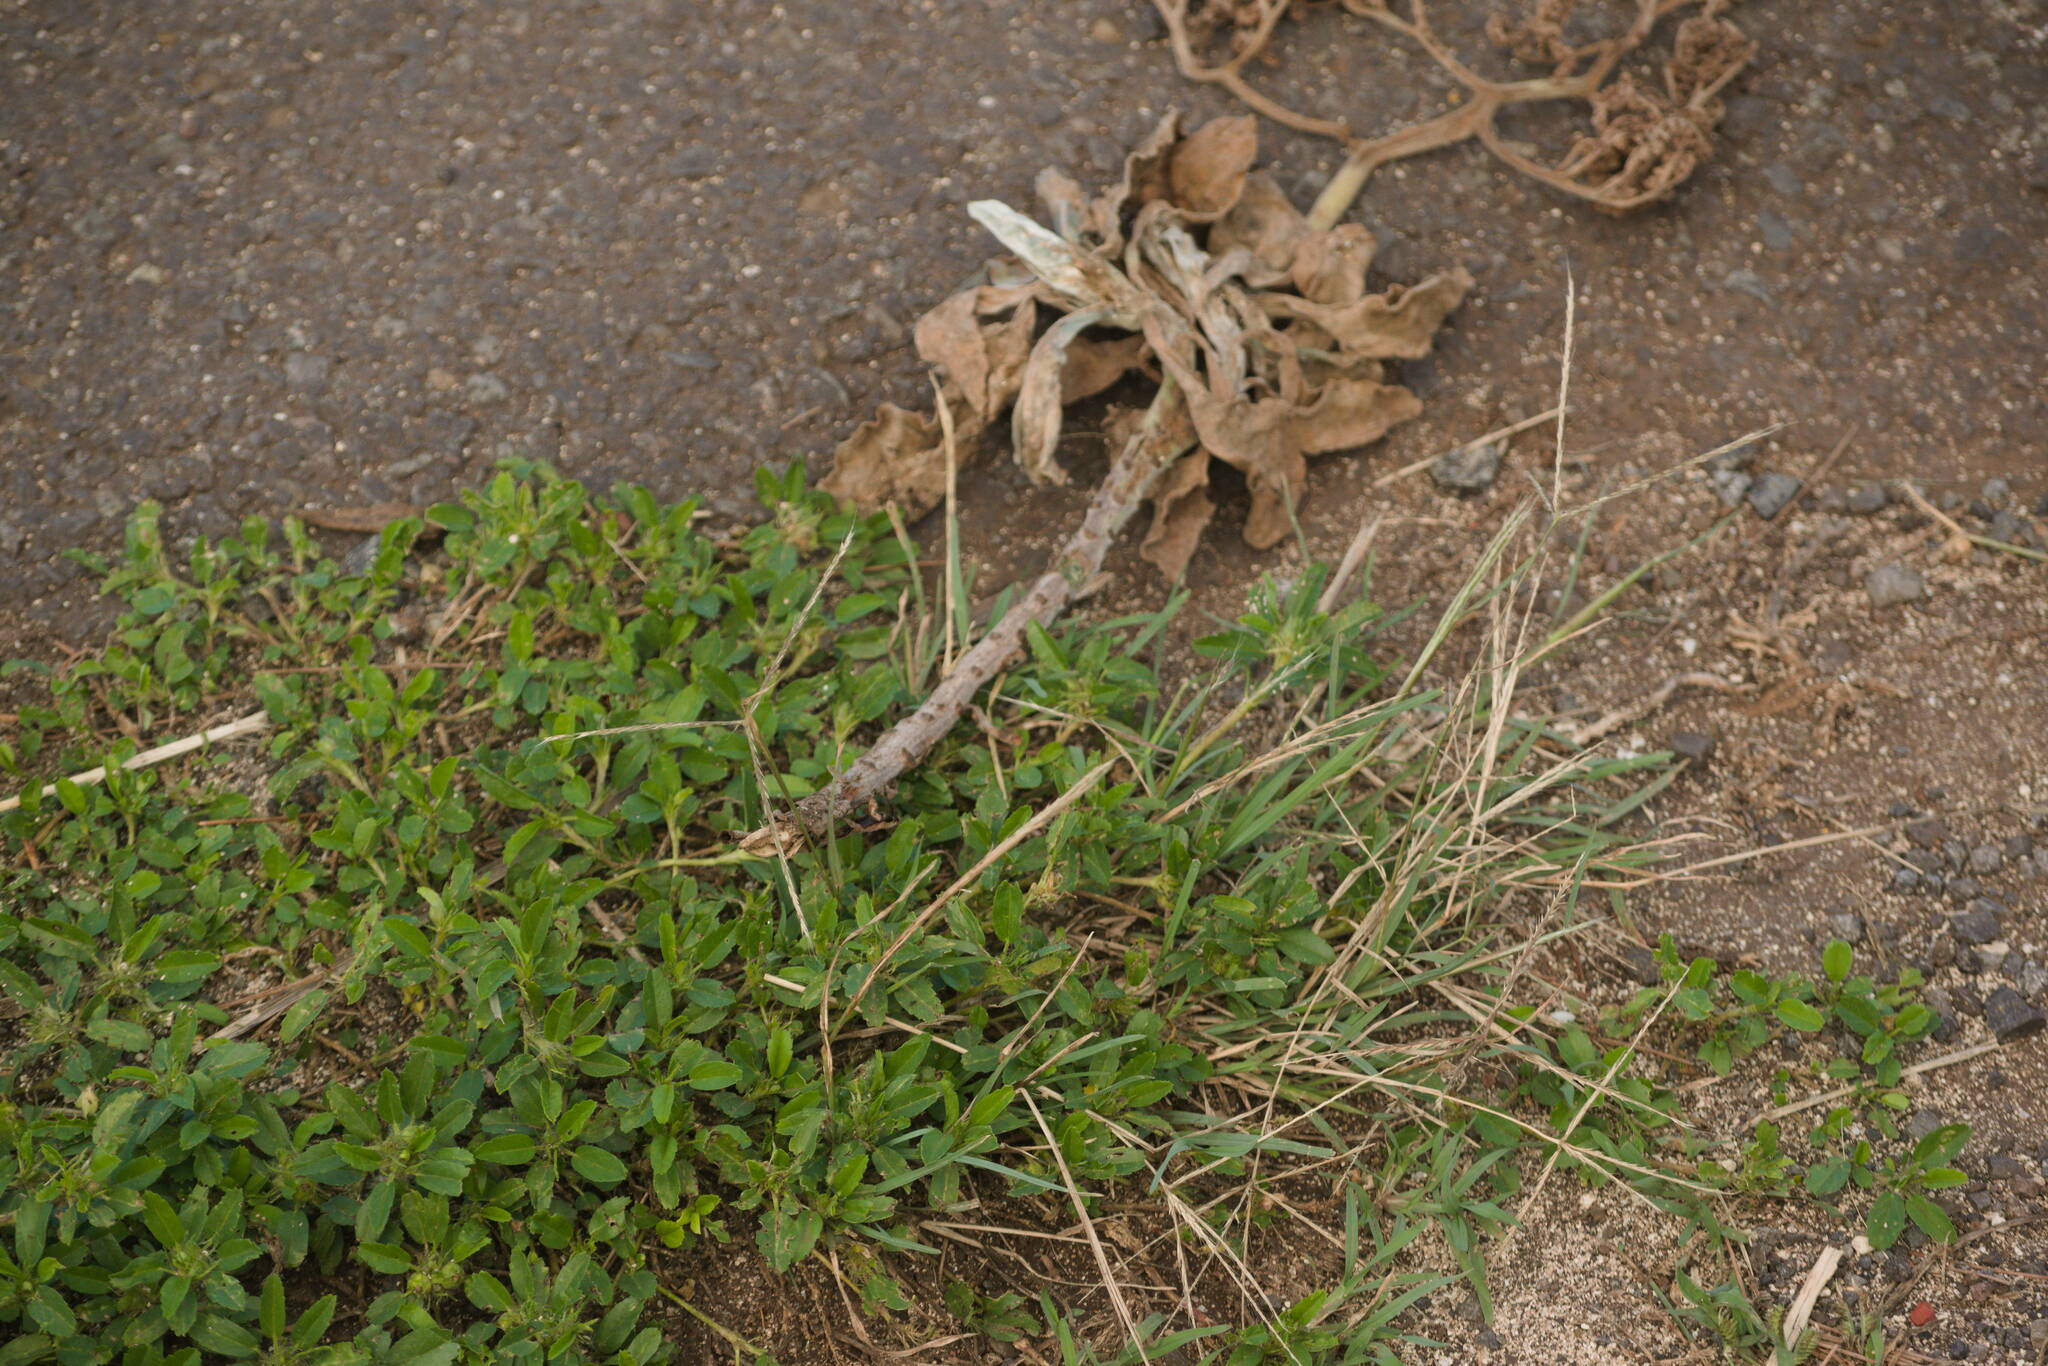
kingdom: Plantae
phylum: Tracheophyta
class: Liliopsida
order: Poales
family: Poaceae
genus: Chloris
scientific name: Chloris divaricata
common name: Spreading windmill grass
